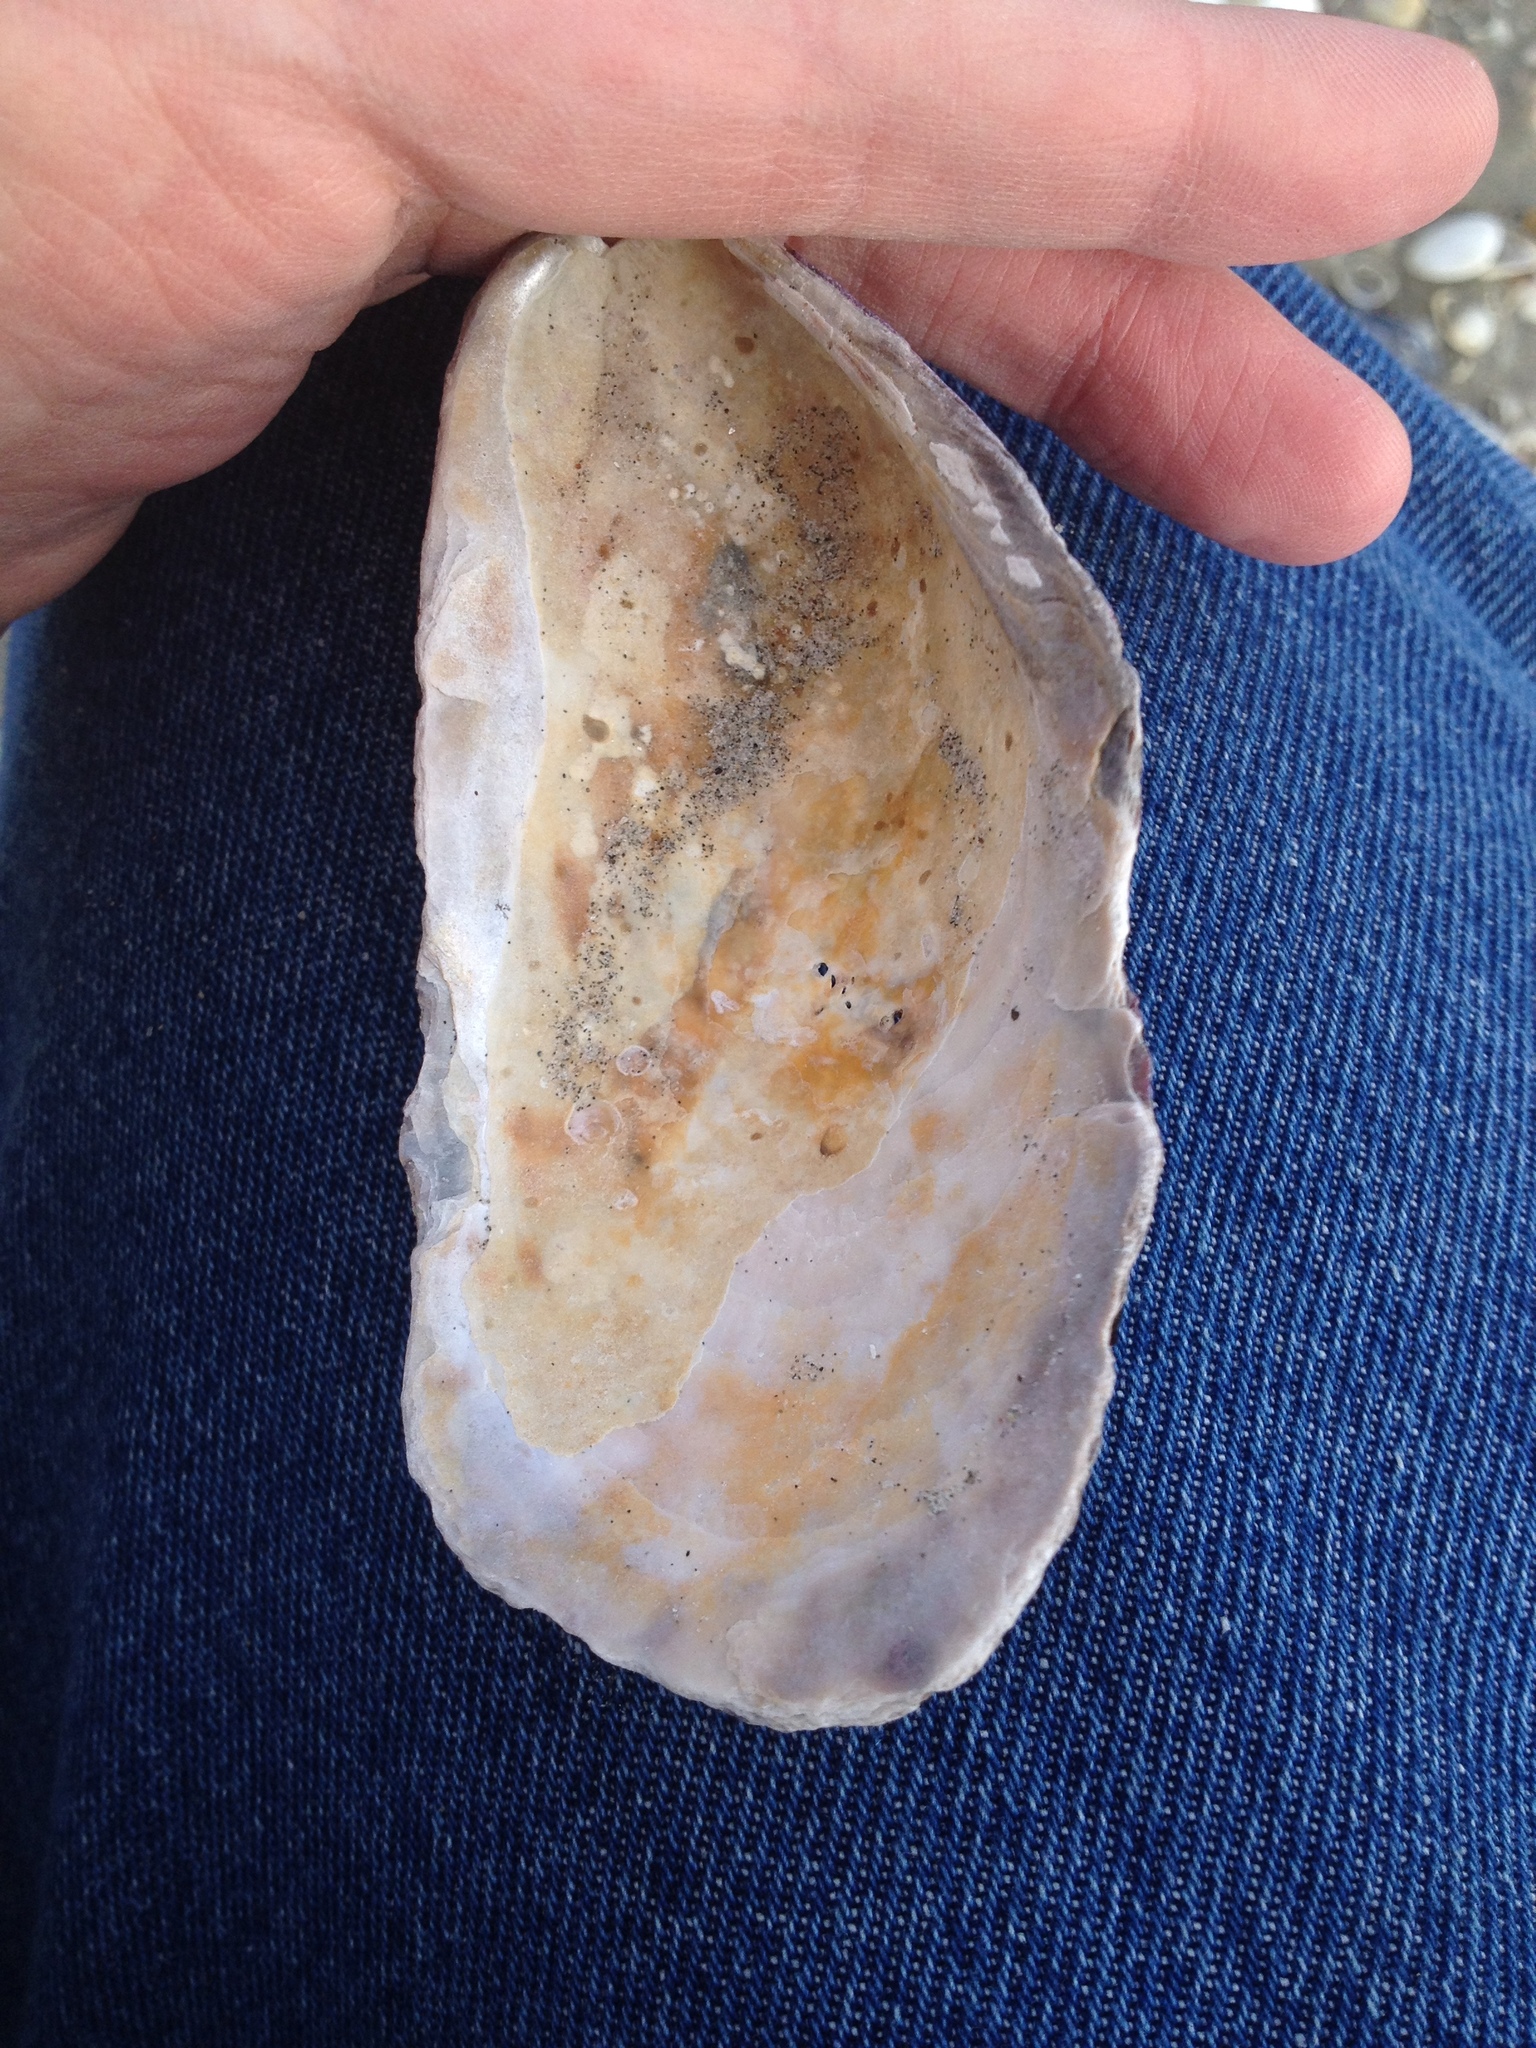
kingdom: Animalia
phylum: Mollusca
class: Bivalvia
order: Mytilida
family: Mytilidae
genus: Modiolus
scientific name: Modiolus modiolus
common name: Horse-mussel
